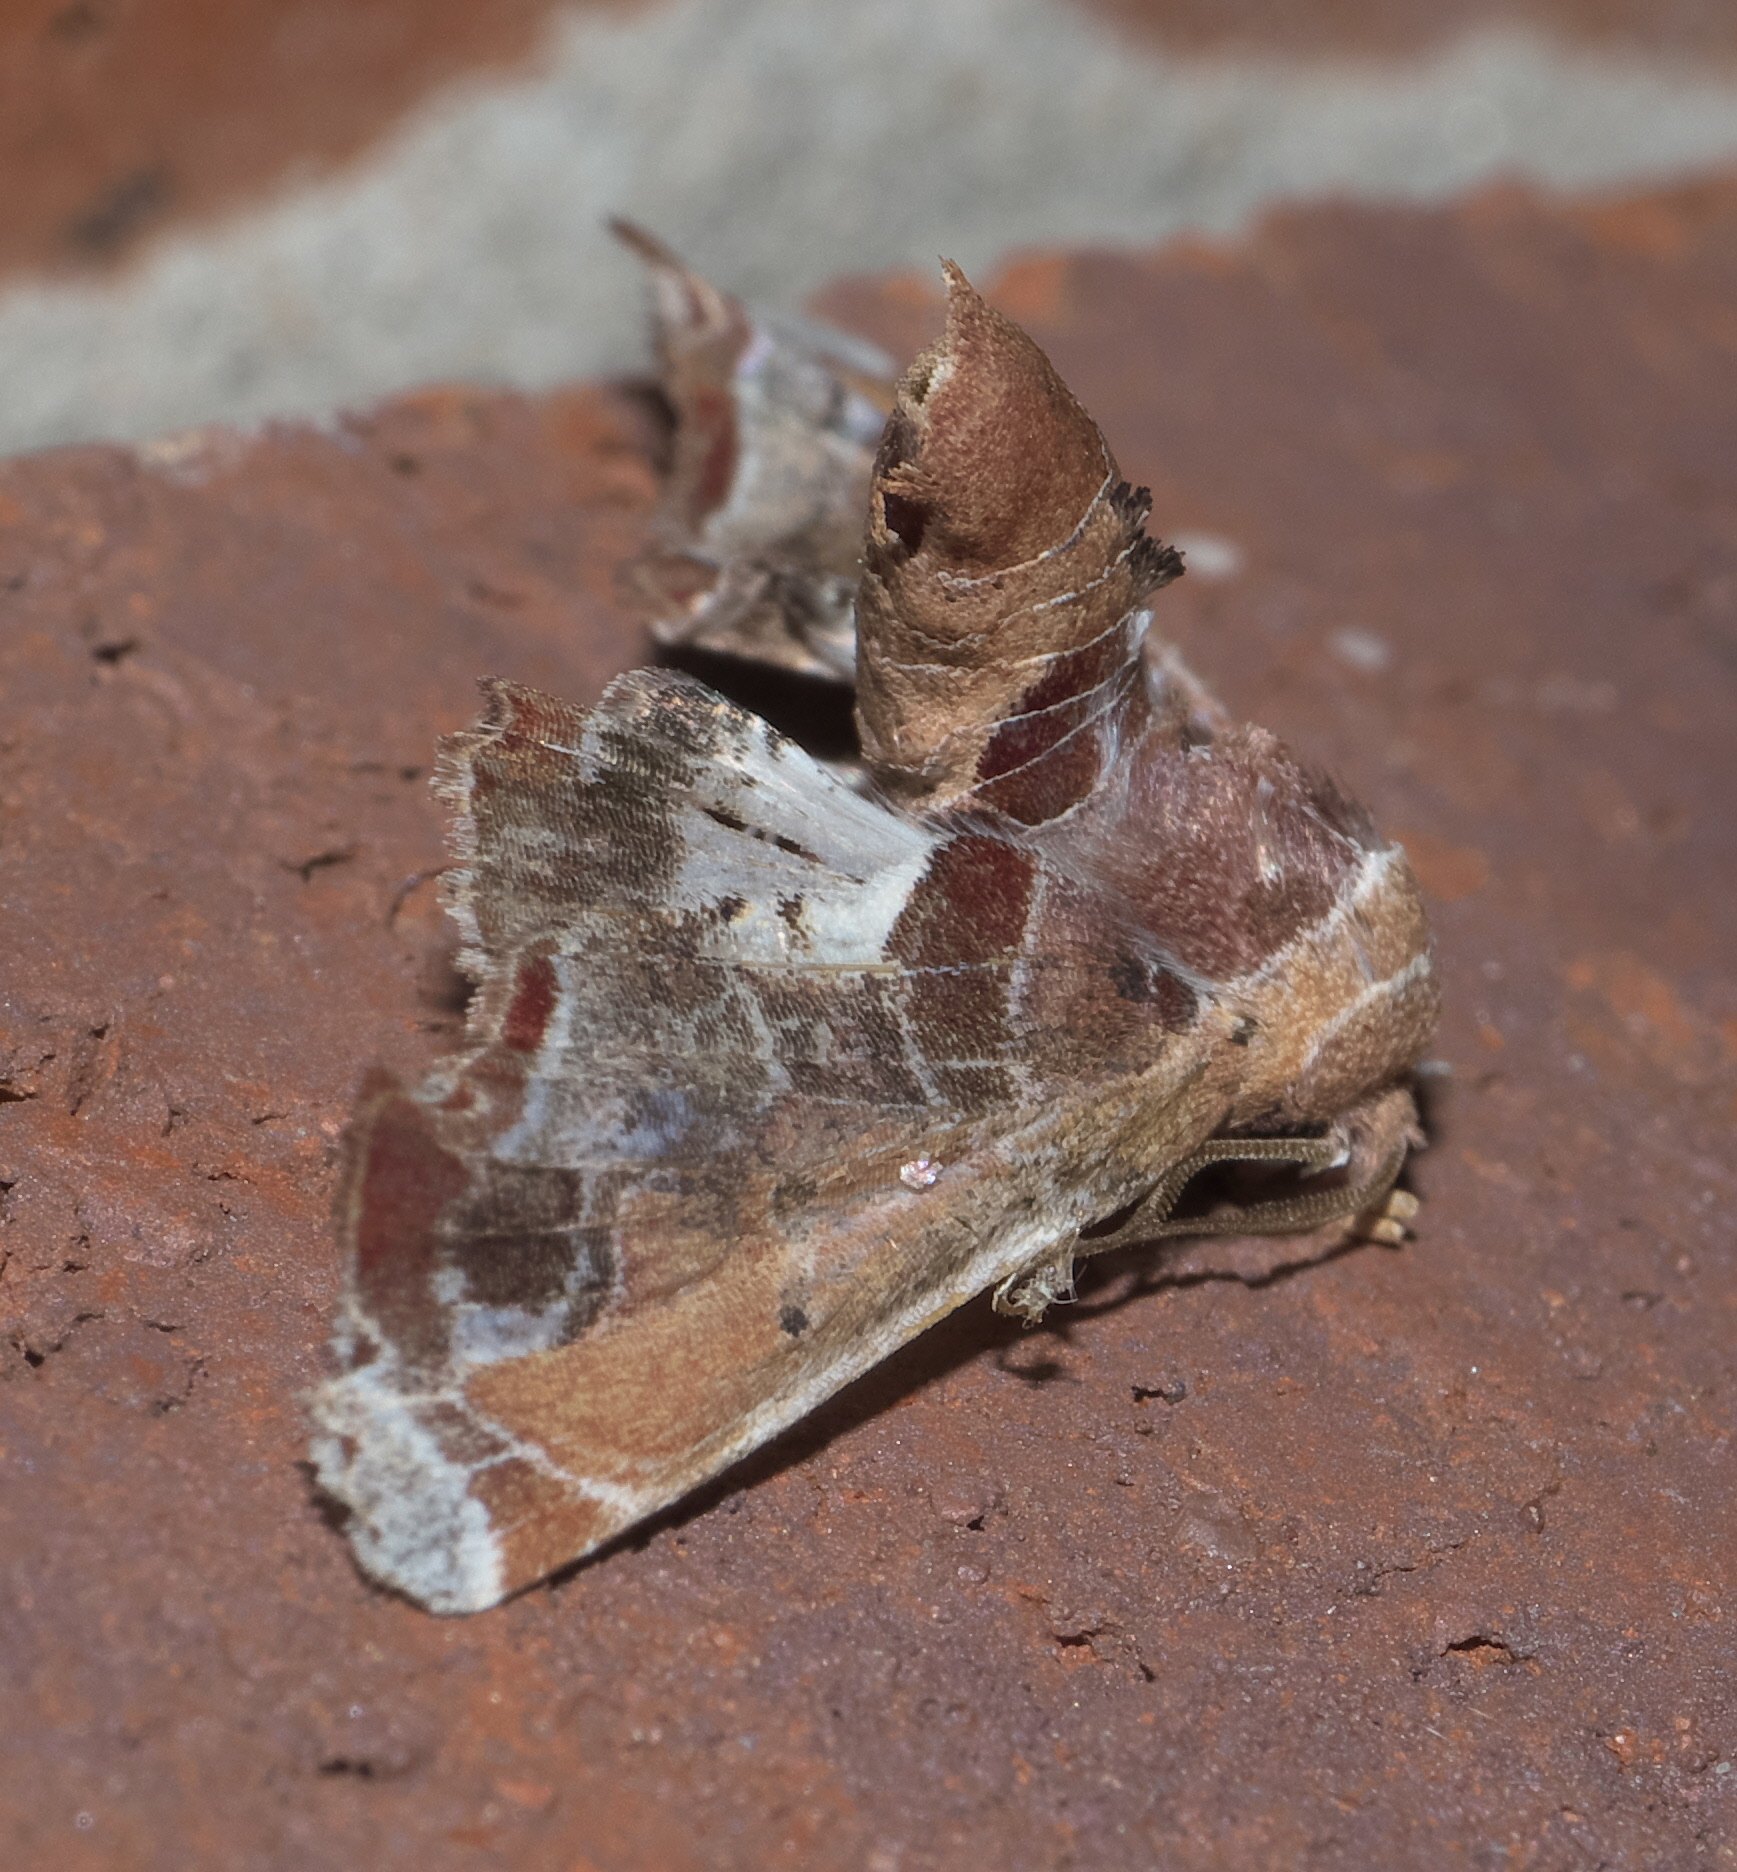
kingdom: Animalia
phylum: Arthropoda
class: Insecta
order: Lepidoptera
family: Euteliidae
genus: Eutelia
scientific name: Eutelia pulcherrimus
